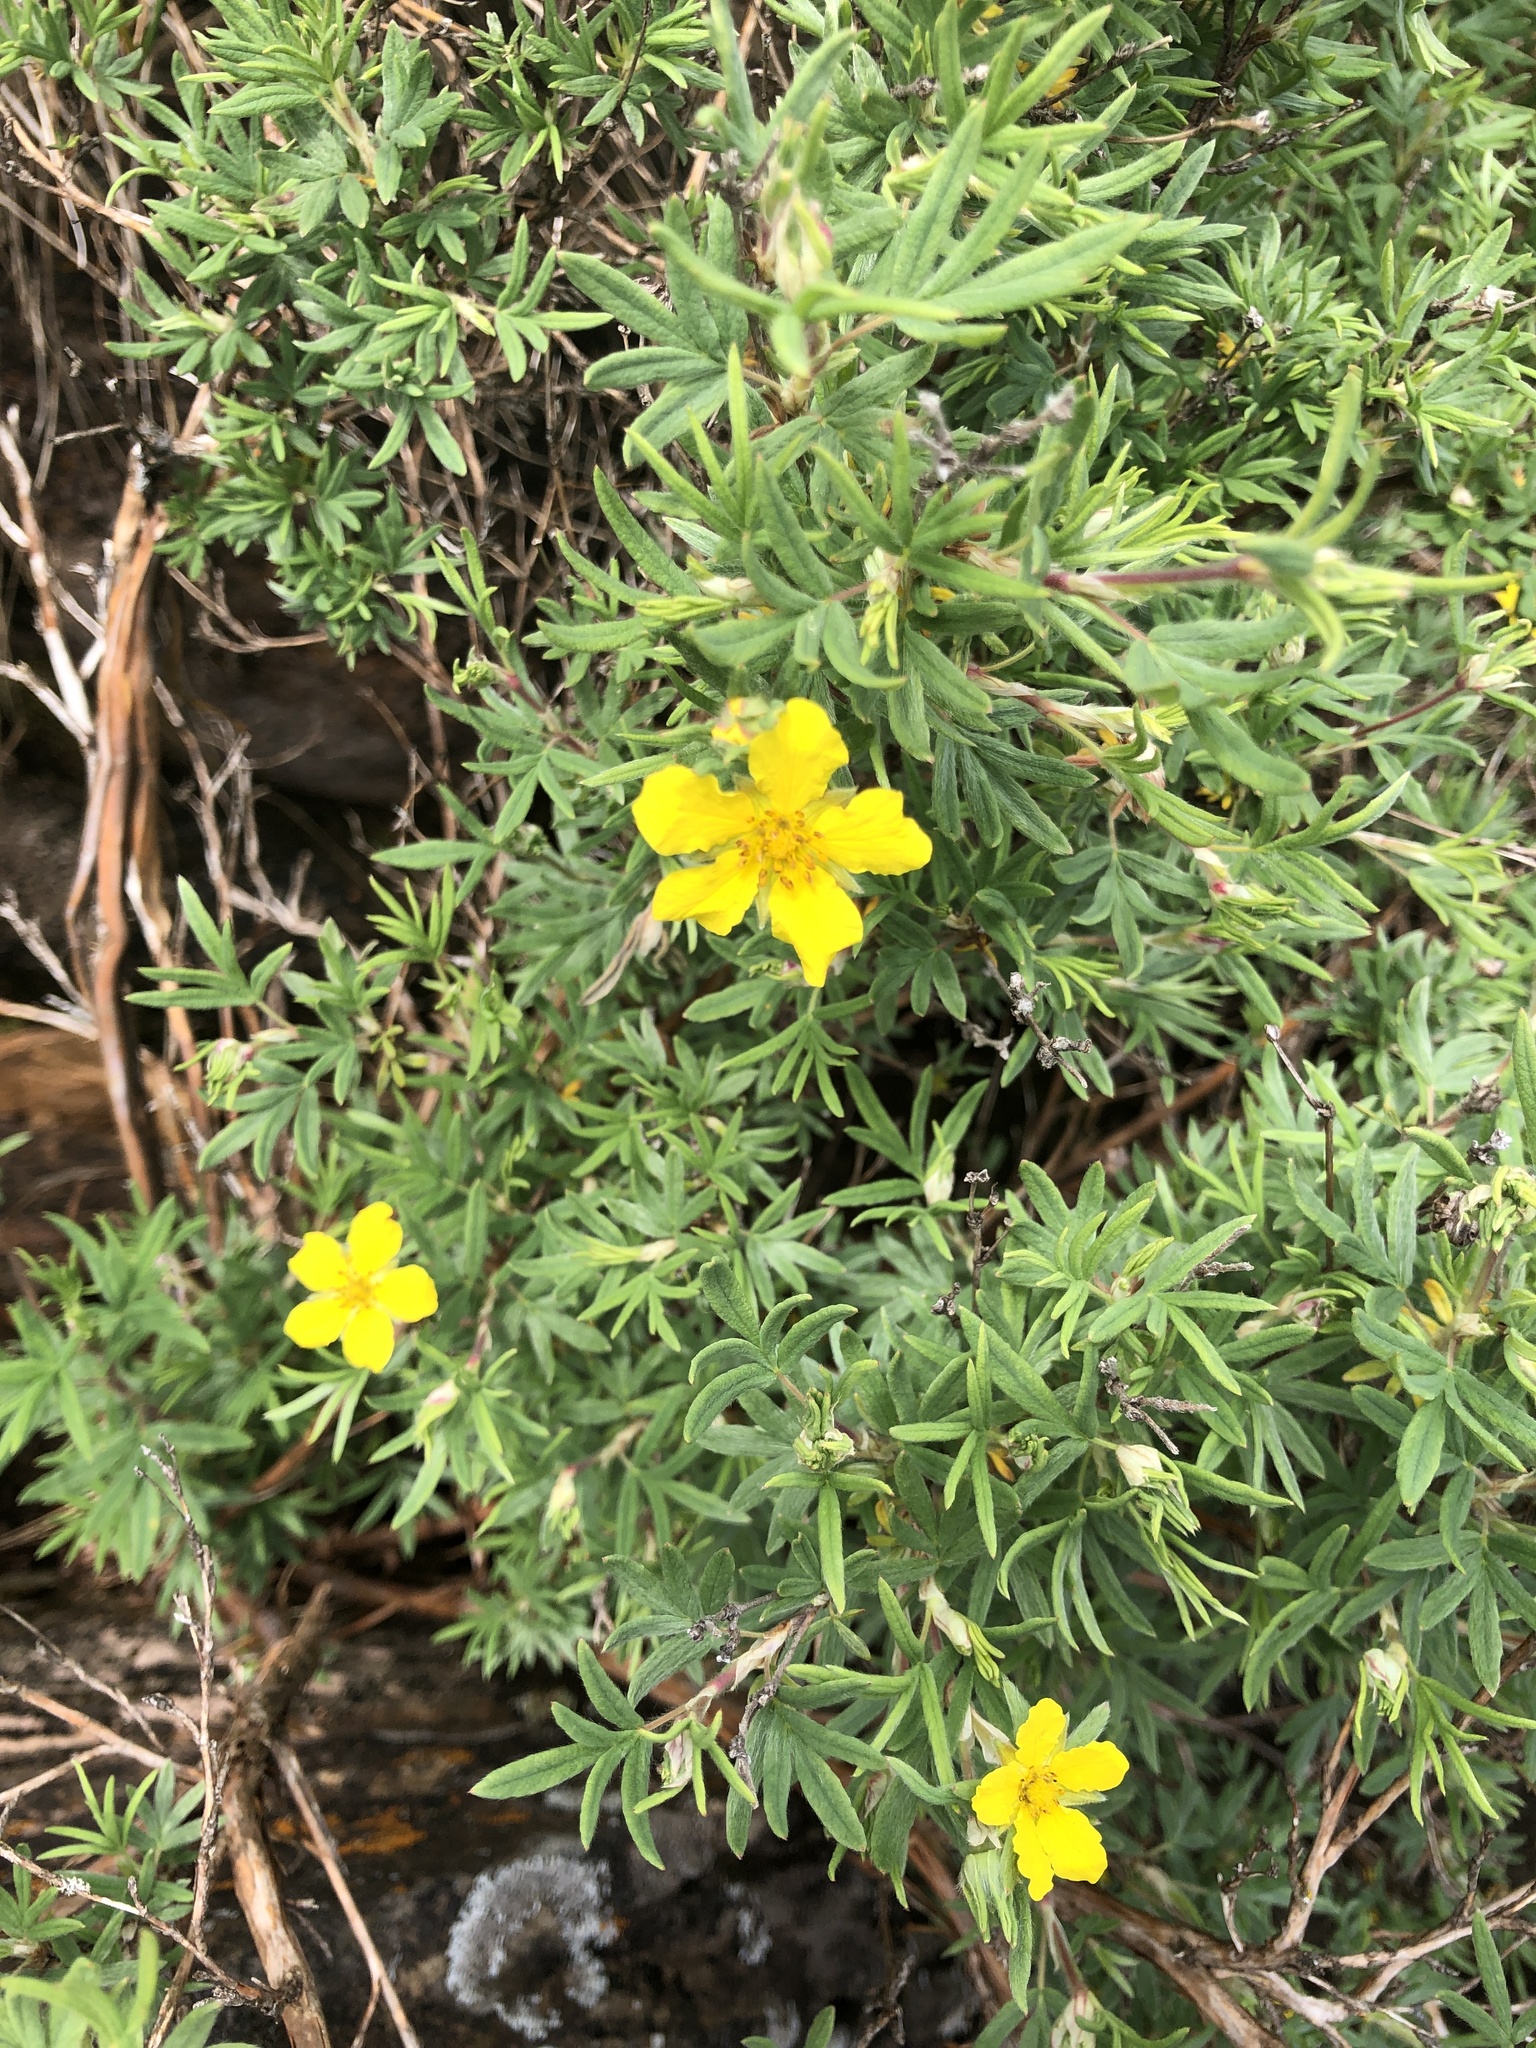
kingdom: Plantae
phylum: Tracheophyta
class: Magnoliopsida
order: Rosales
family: Rosaceae
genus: Dasiphora
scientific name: Dasiphora fruticosa
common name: Shrubby cinquefoil
